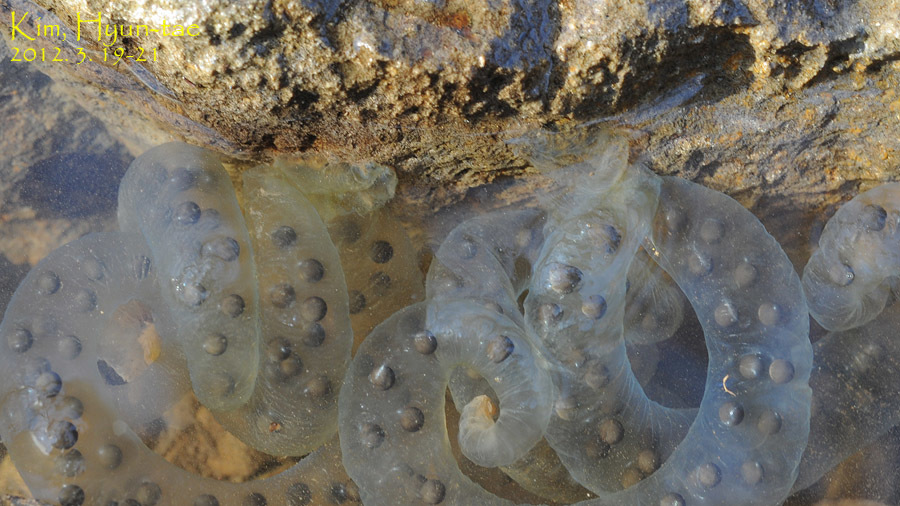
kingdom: Animalia
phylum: Chordata
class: Amphibia
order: Caudata
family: Hynobiidae
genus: Hynobius
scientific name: Hynobius leechii
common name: Gensan salamander
